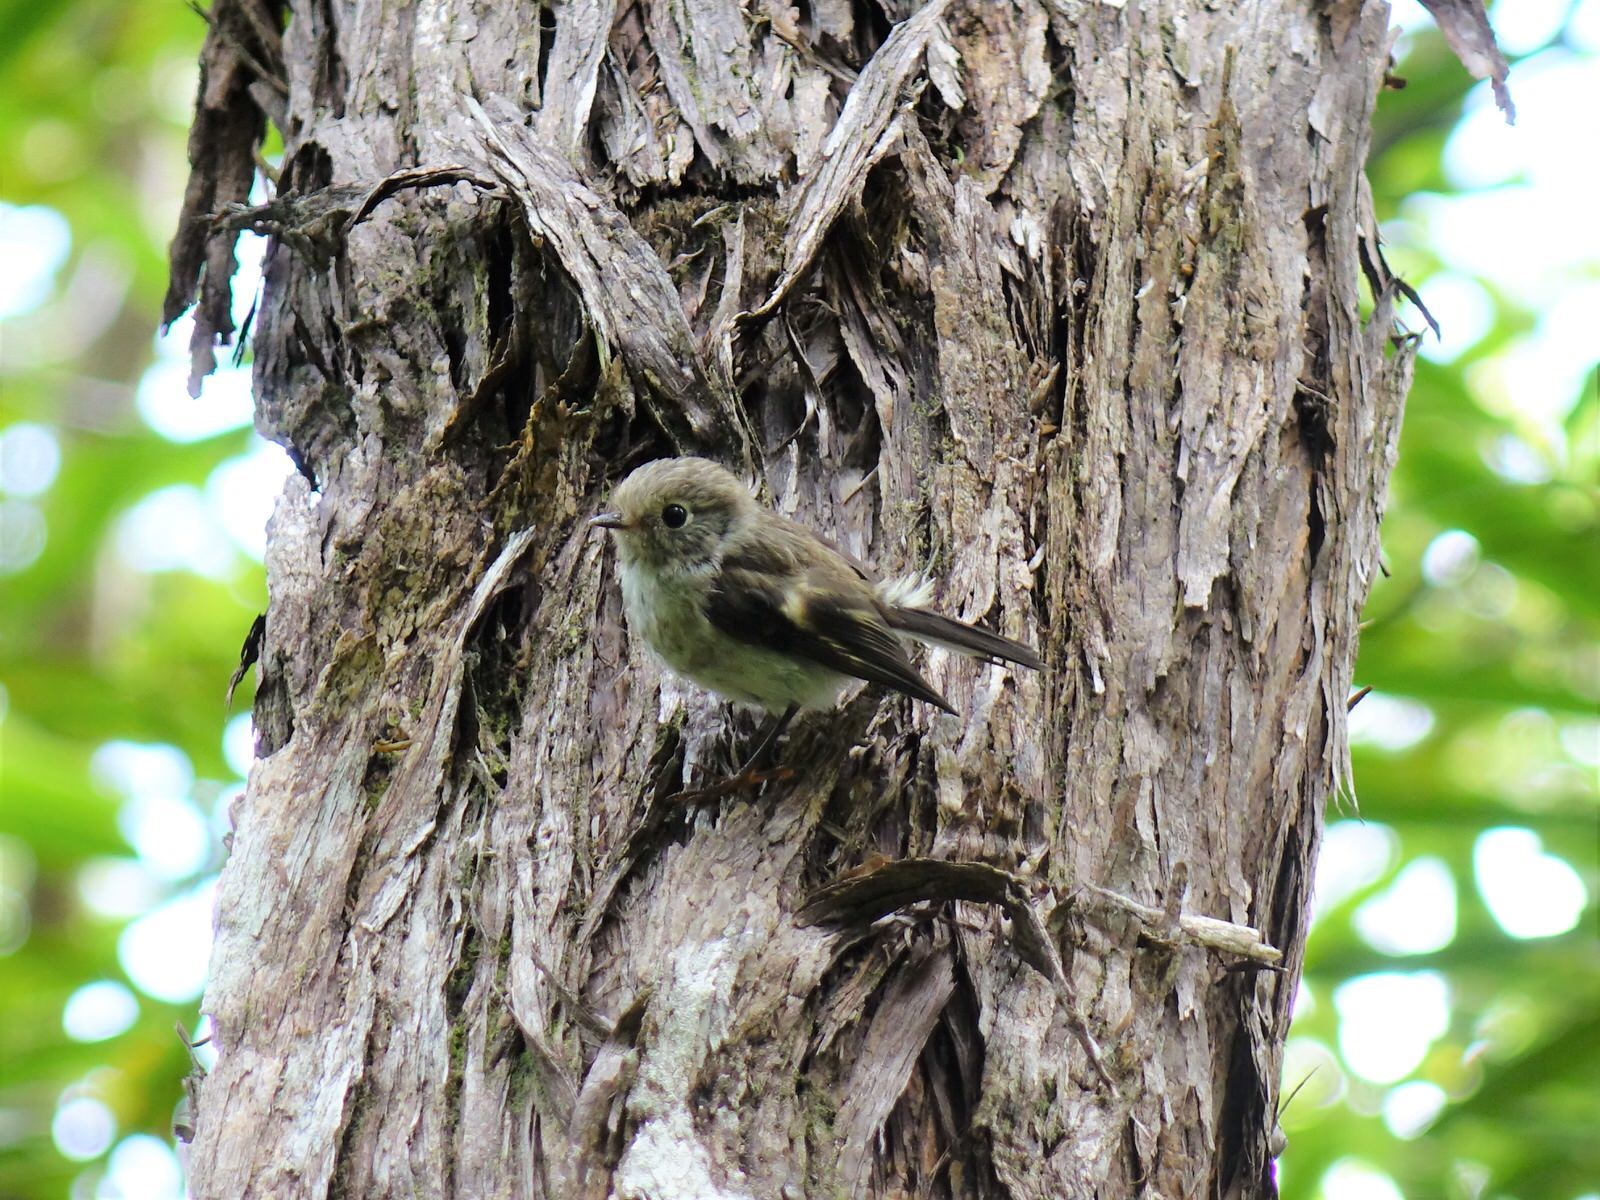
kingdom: Animalia
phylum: Chordata
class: Aves
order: Passeriformes
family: Petroicidae
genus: Petroica
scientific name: Petroica macrocephala
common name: Tomtit
